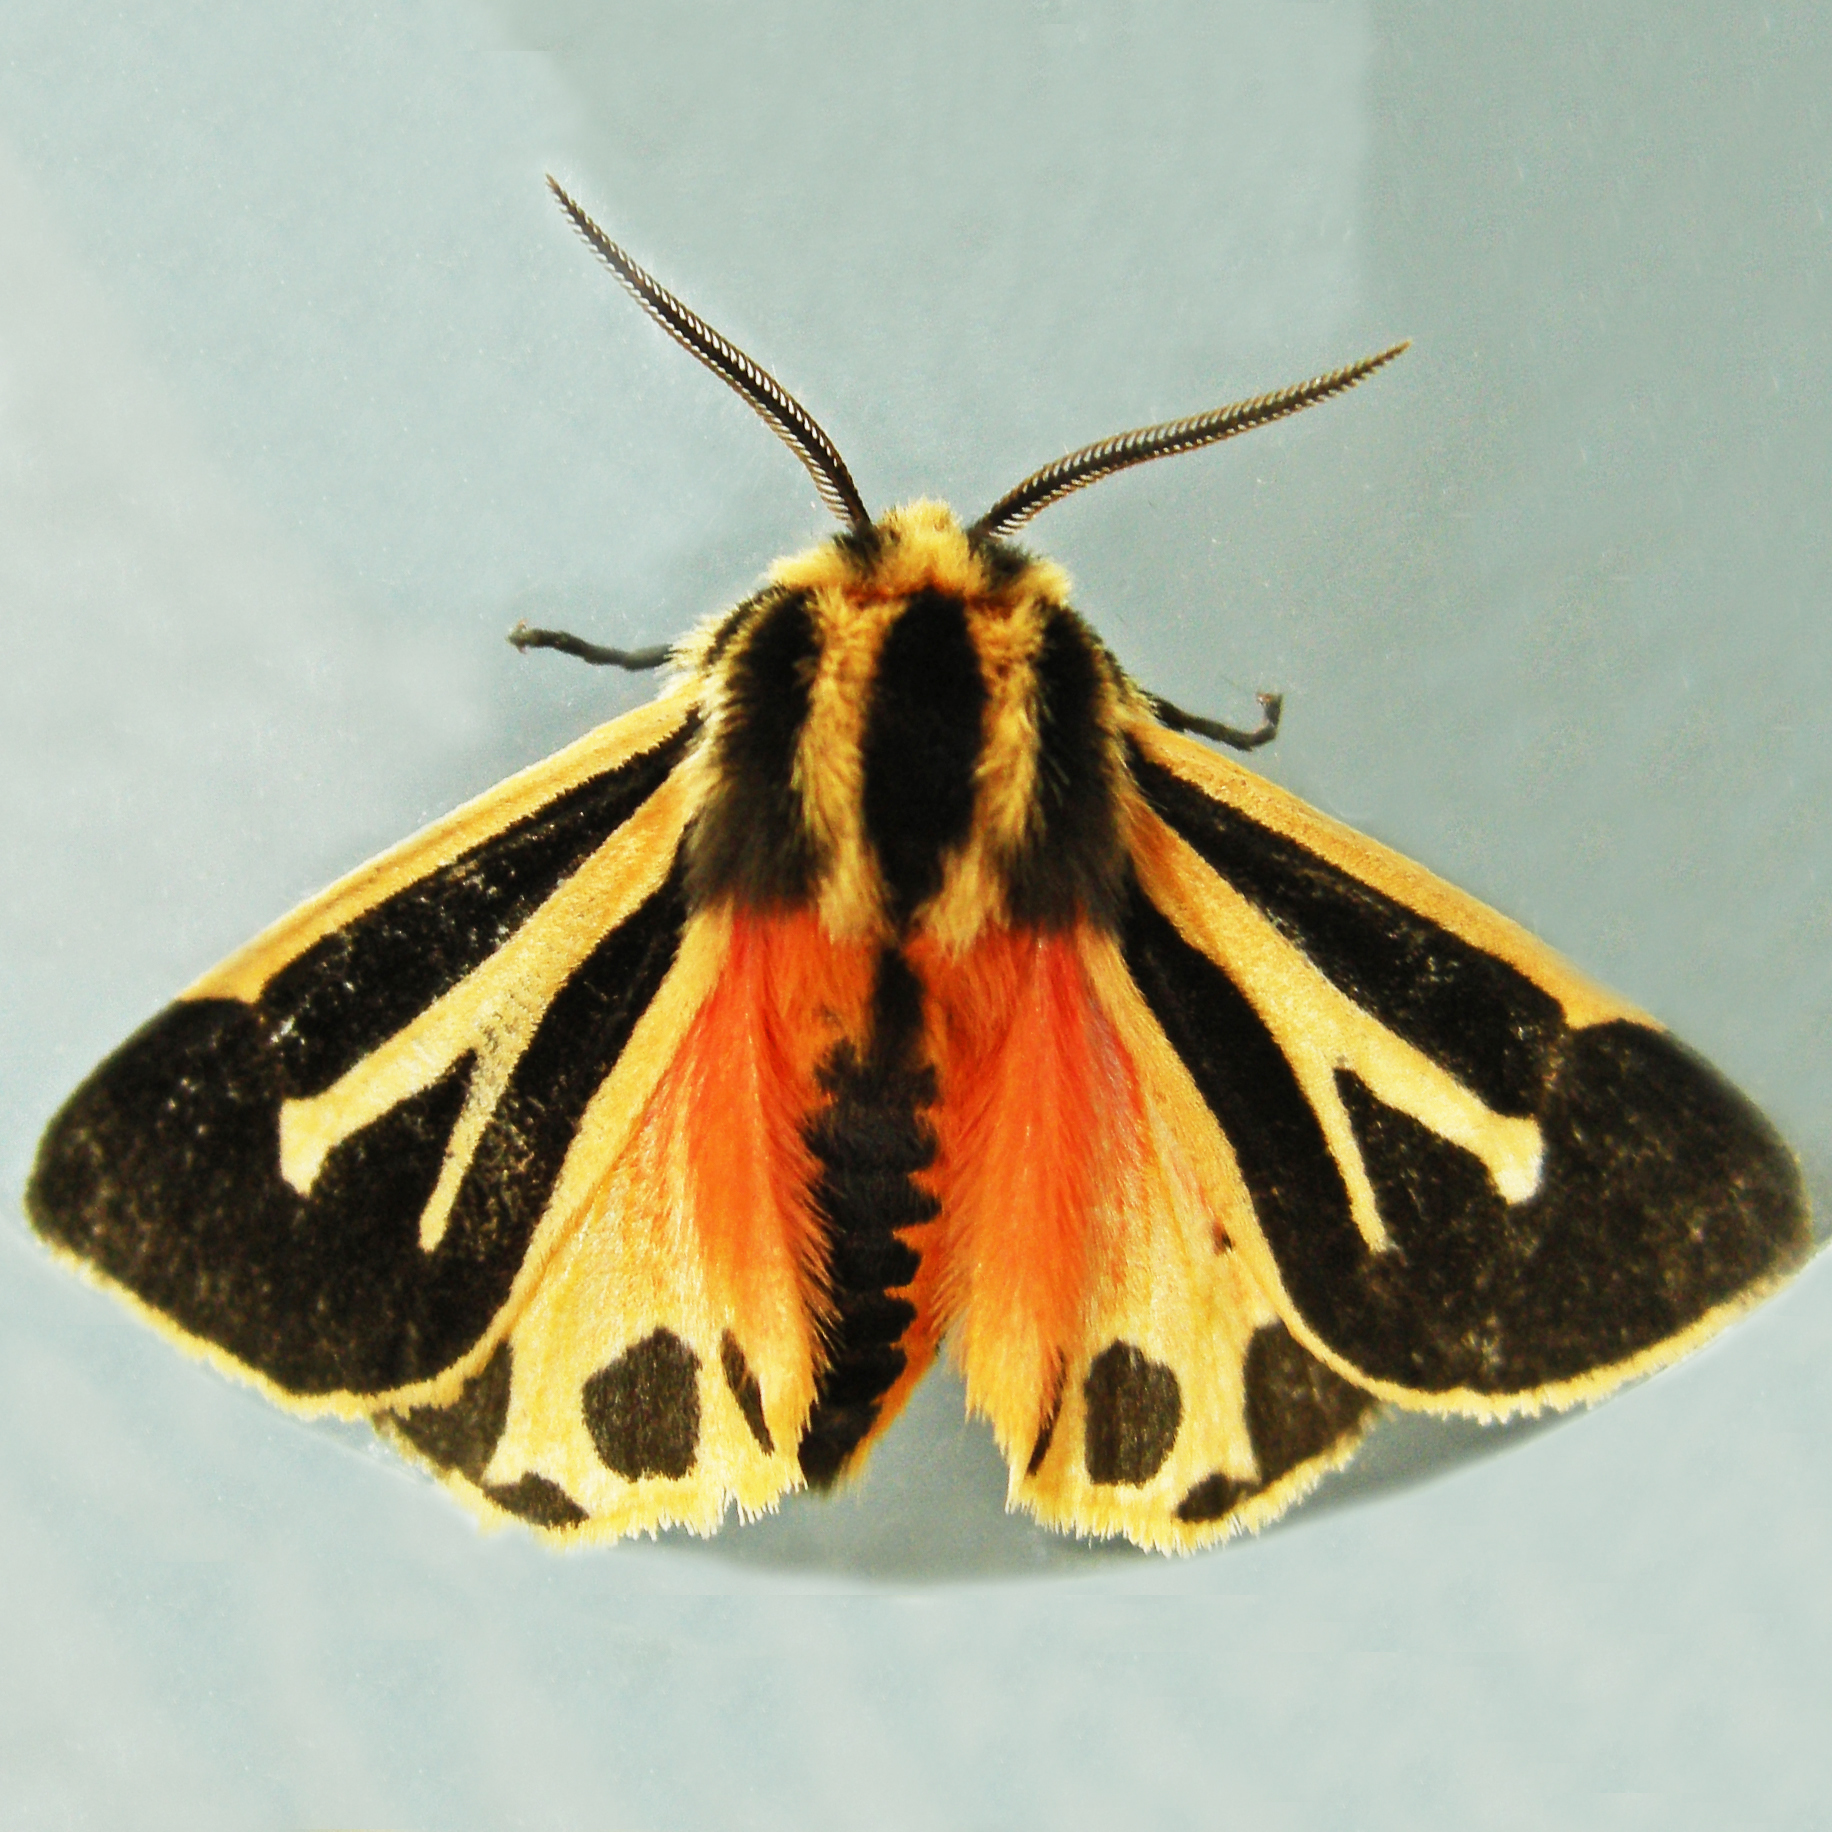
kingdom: Animalia
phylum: Arthropoda
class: Insecta
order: Lepidoptera
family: Erebidae
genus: Apantesis
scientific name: Apantesis phalerata
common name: Harnessed tiger moth
